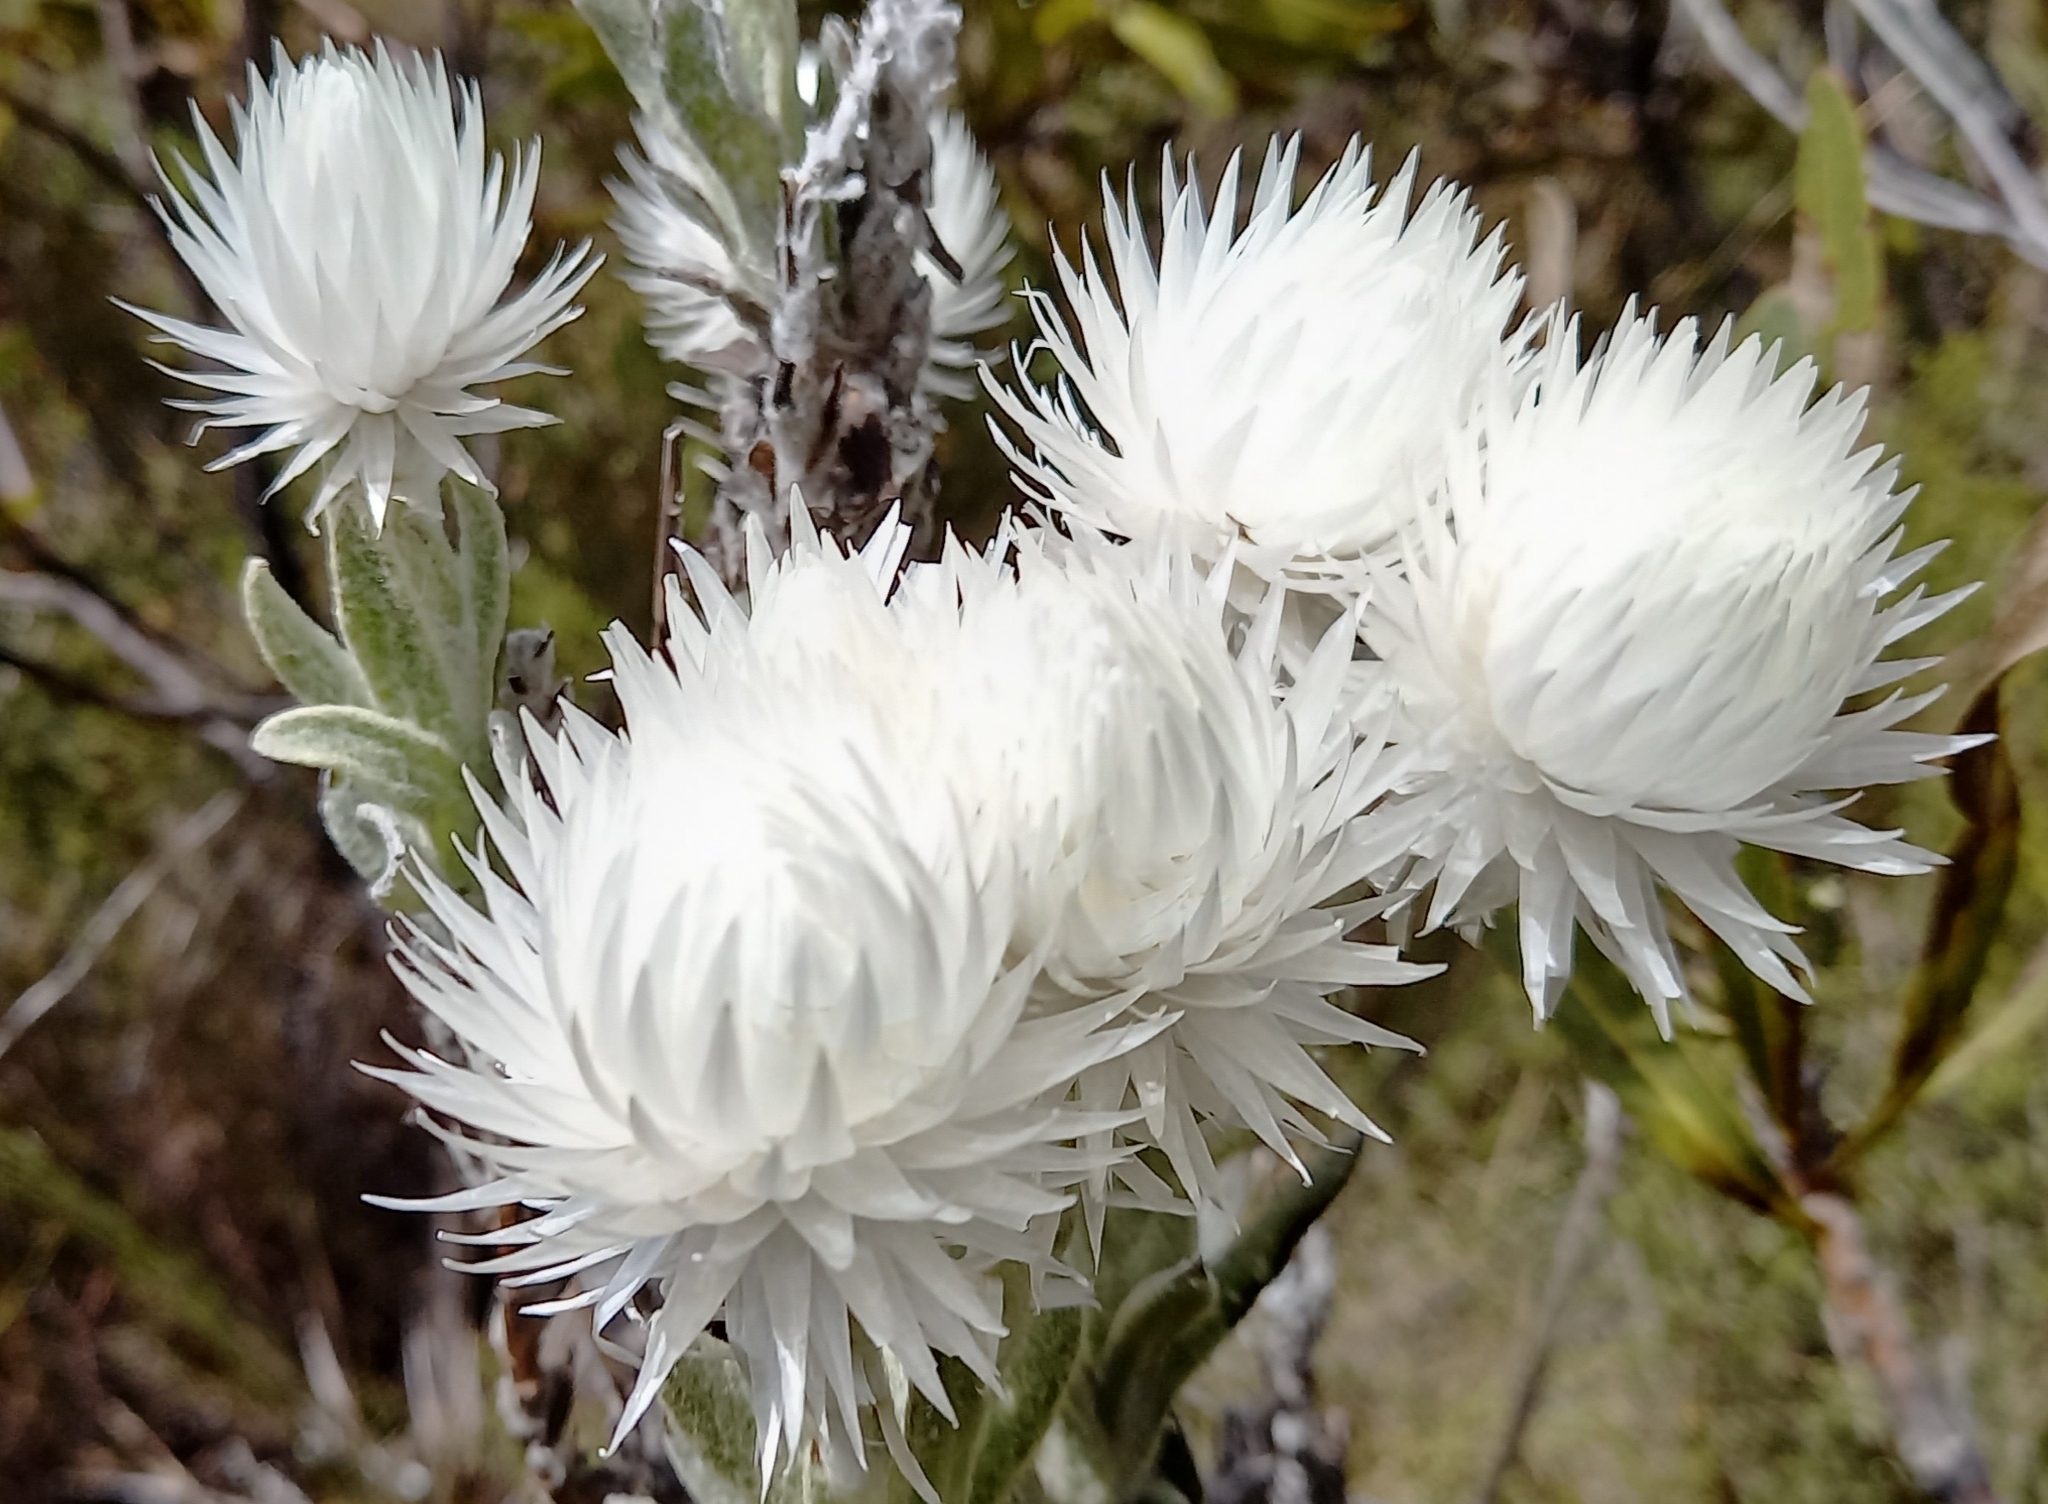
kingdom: Plantae
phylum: Tracheophyta
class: Magnoliopsida
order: Asterales
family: Asteraceae
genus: Syncarpha
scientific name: Syncarpha vestita
